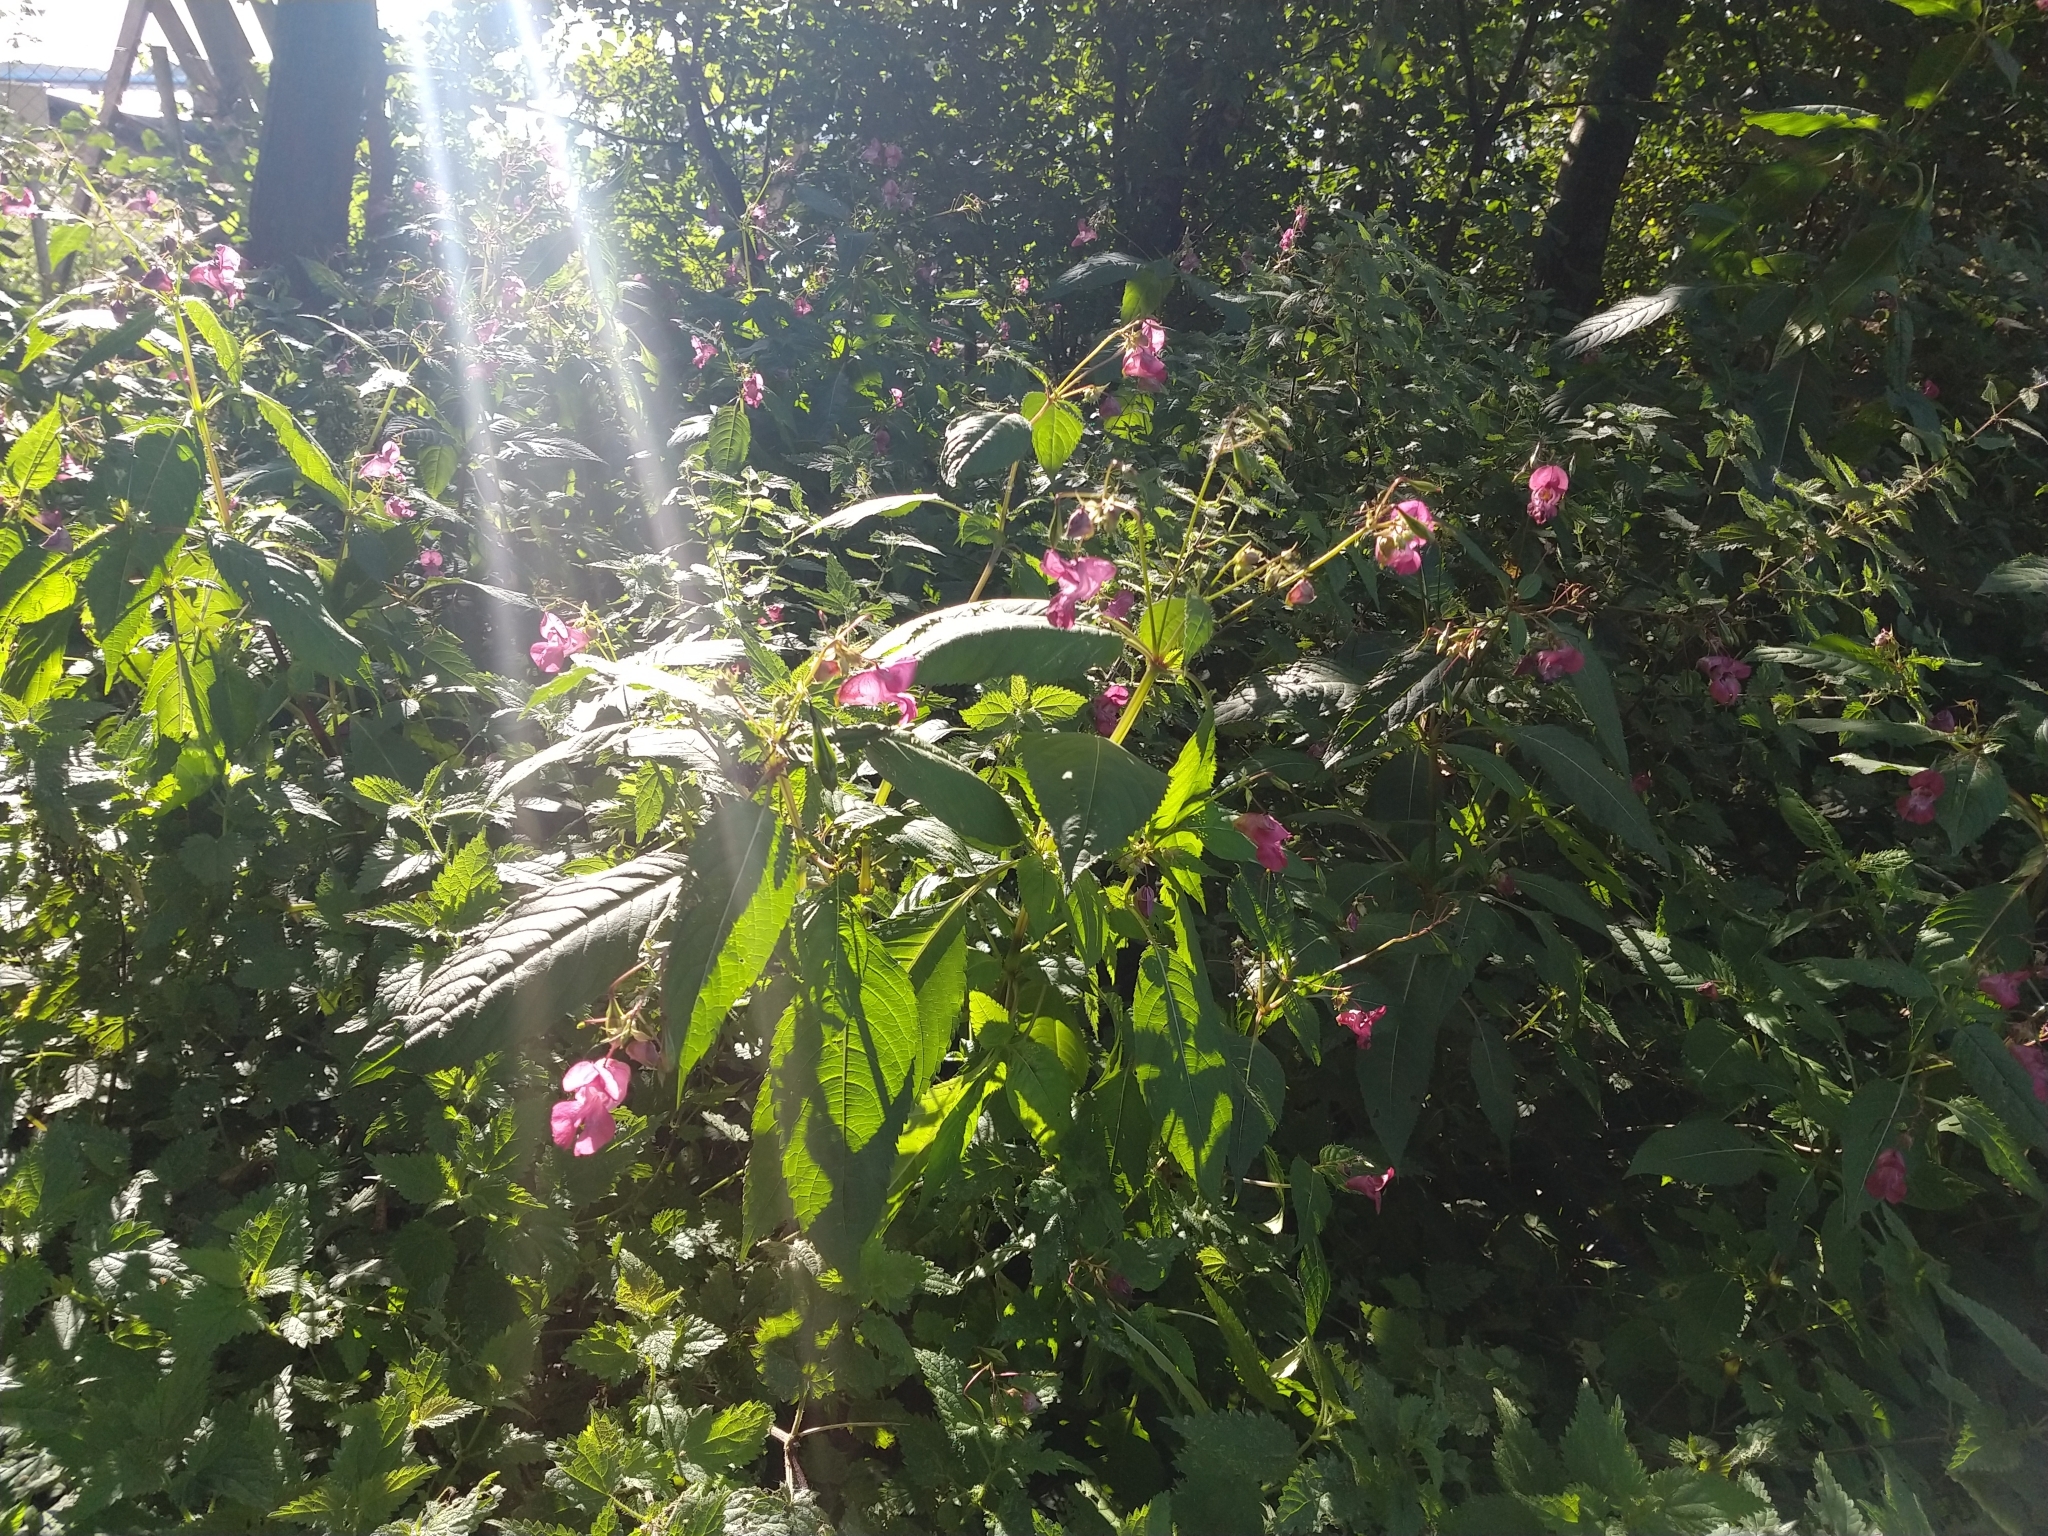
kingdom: Plantae
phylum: Tracheophyta
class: Magnoliopsida
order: Ericales
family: Balsaminaceae
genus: Impatiens
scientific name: Impatiens glandulifera
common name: Himalayan balsam
